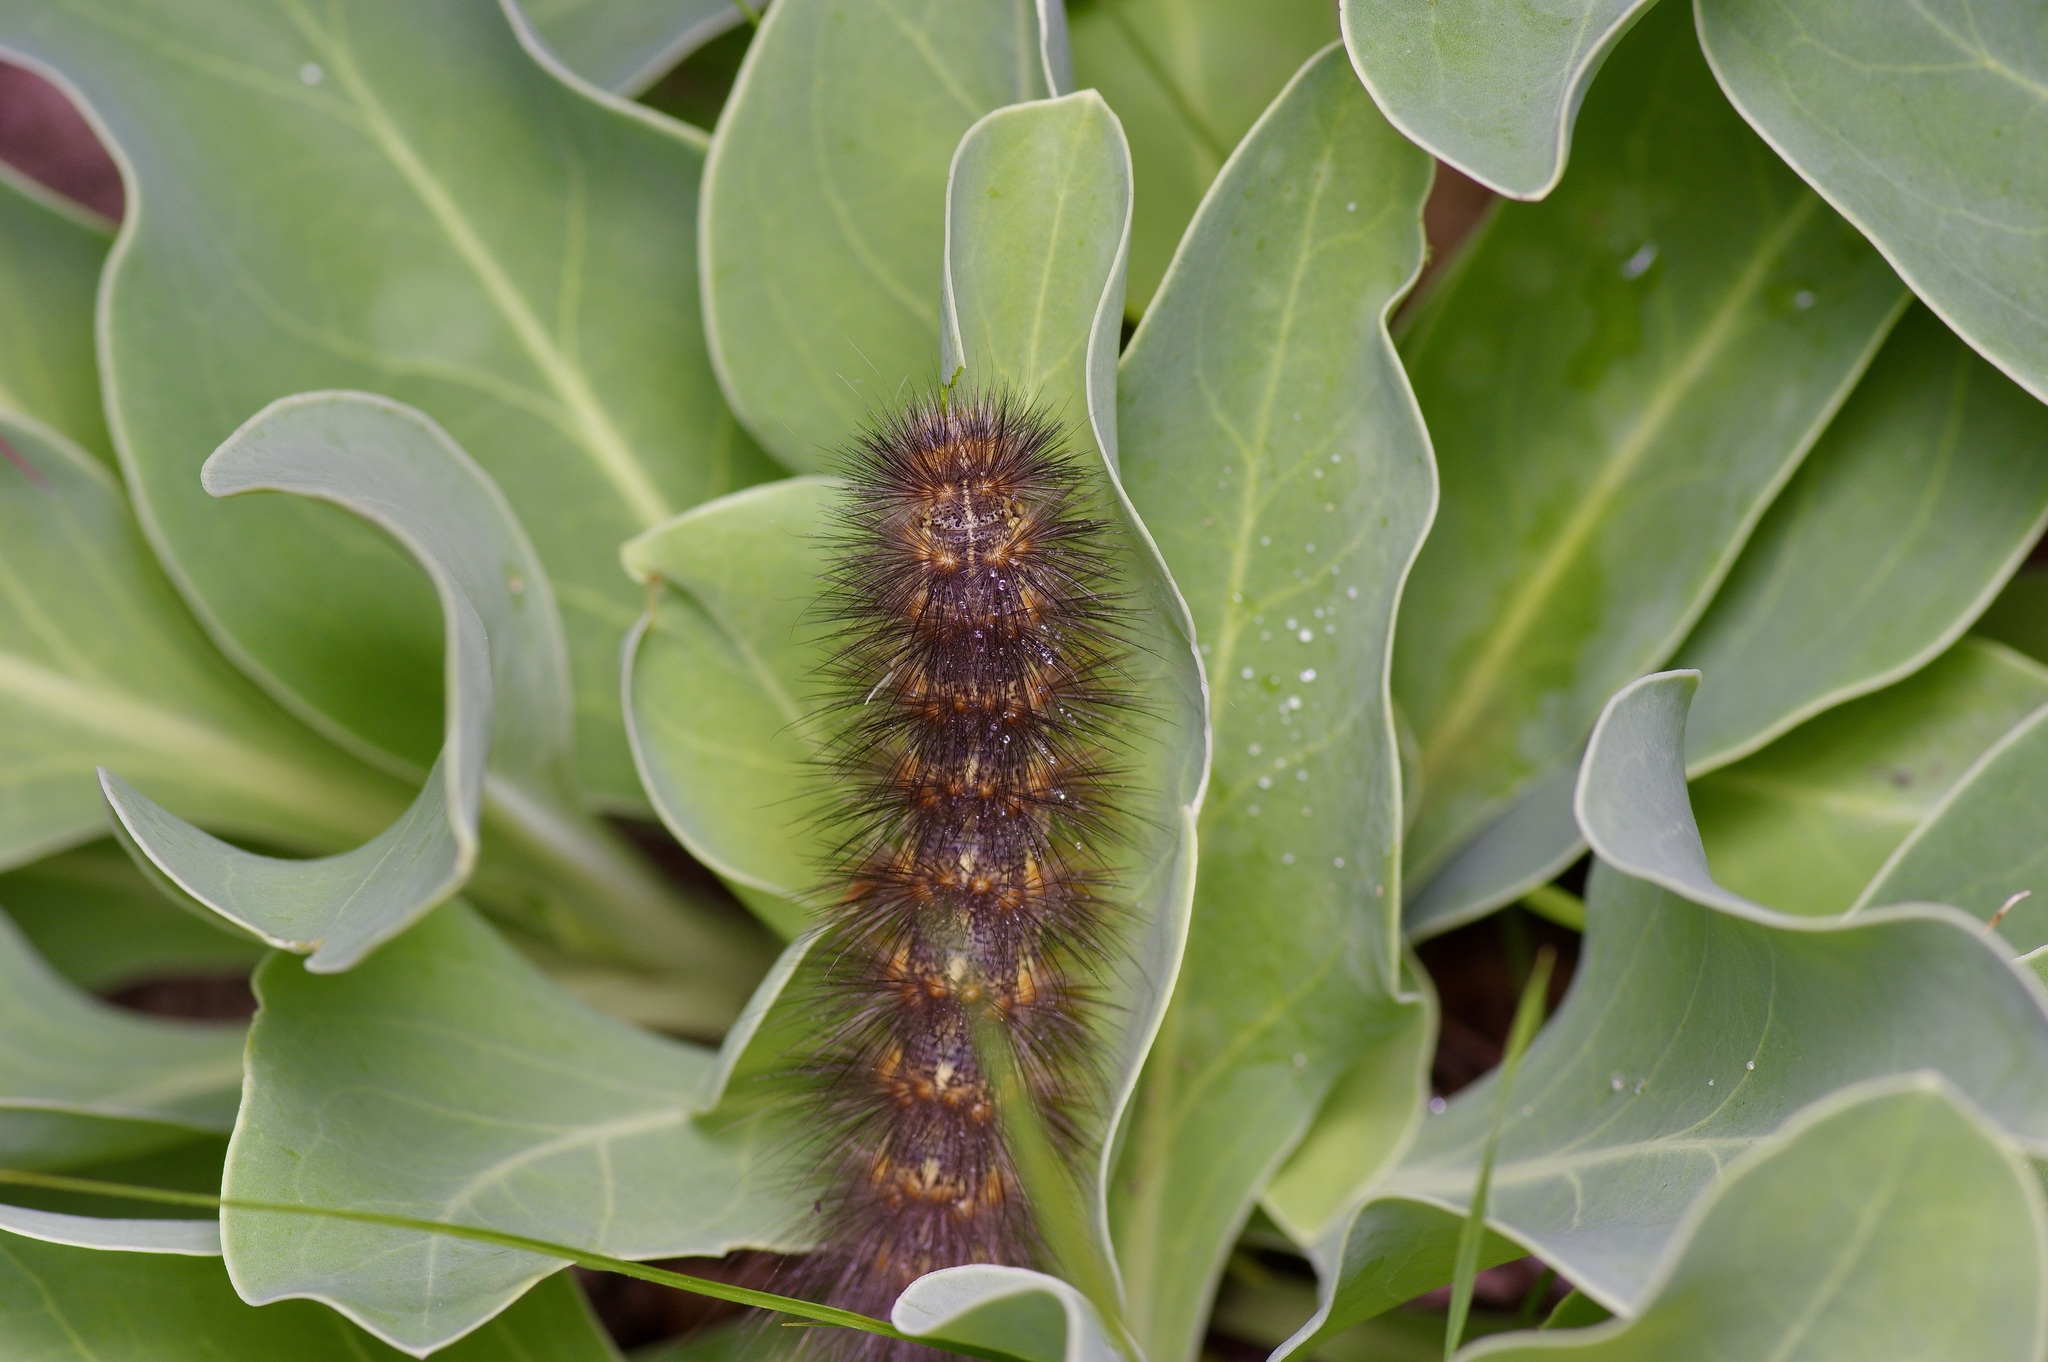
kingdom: Animalia
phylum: Arthropoda
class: Insecta
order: Lepidoptera
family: Erebidae
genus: Estigmene
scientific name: Estigmene acrea
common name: Salt marsh moth
